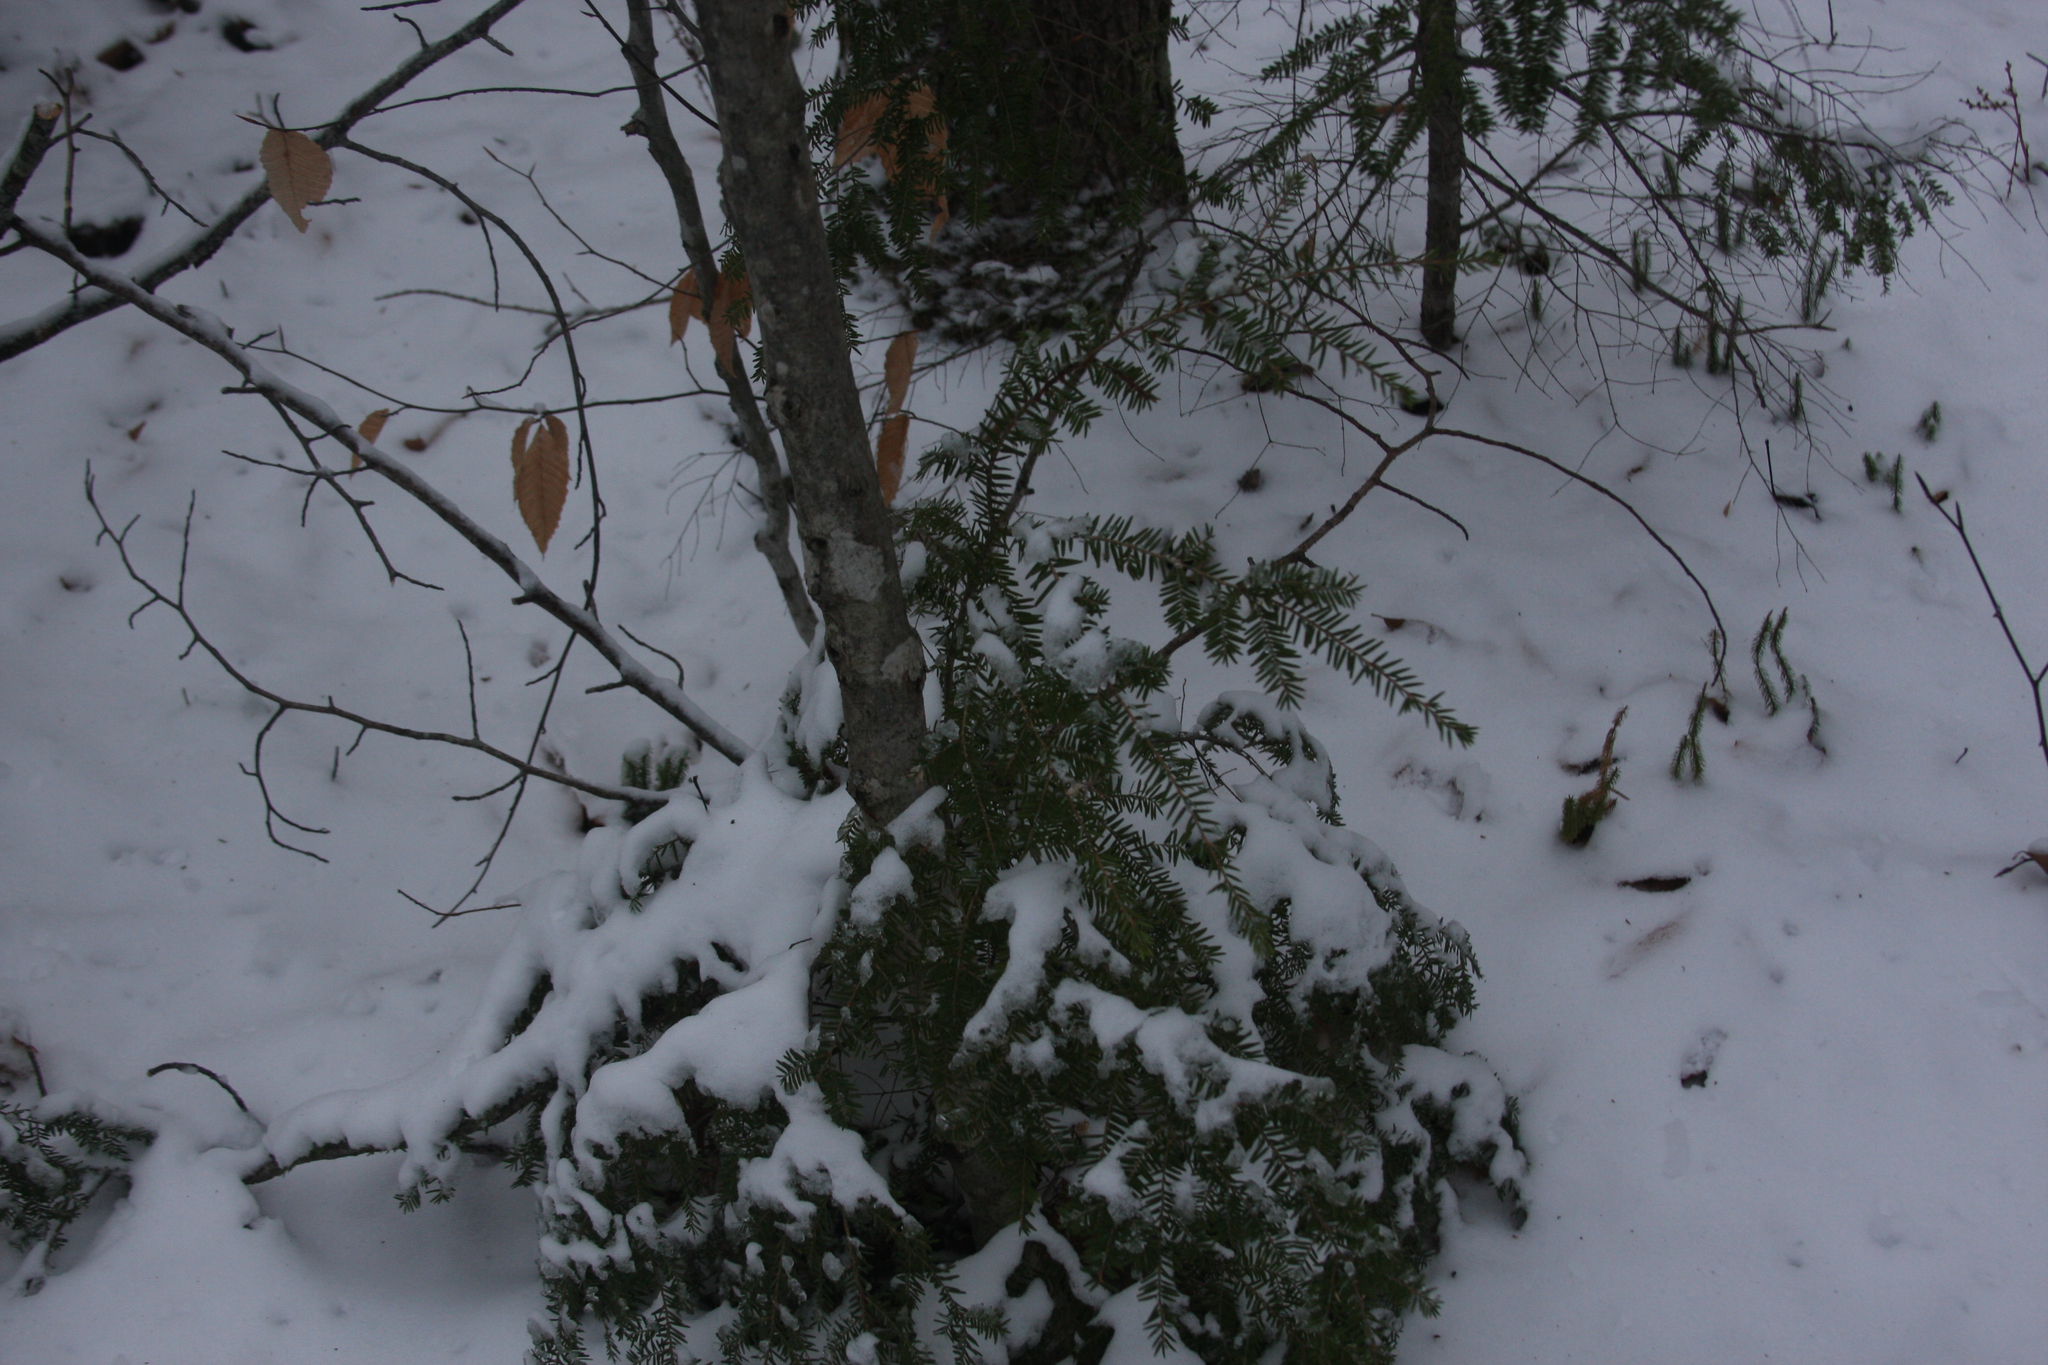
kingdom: Plantae
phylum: Tracheophyta
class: Pinopsida
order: Pinales
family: Pinaceae
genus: Tsuga
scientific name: Tsuga canadensis
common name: Eastern hemlock
